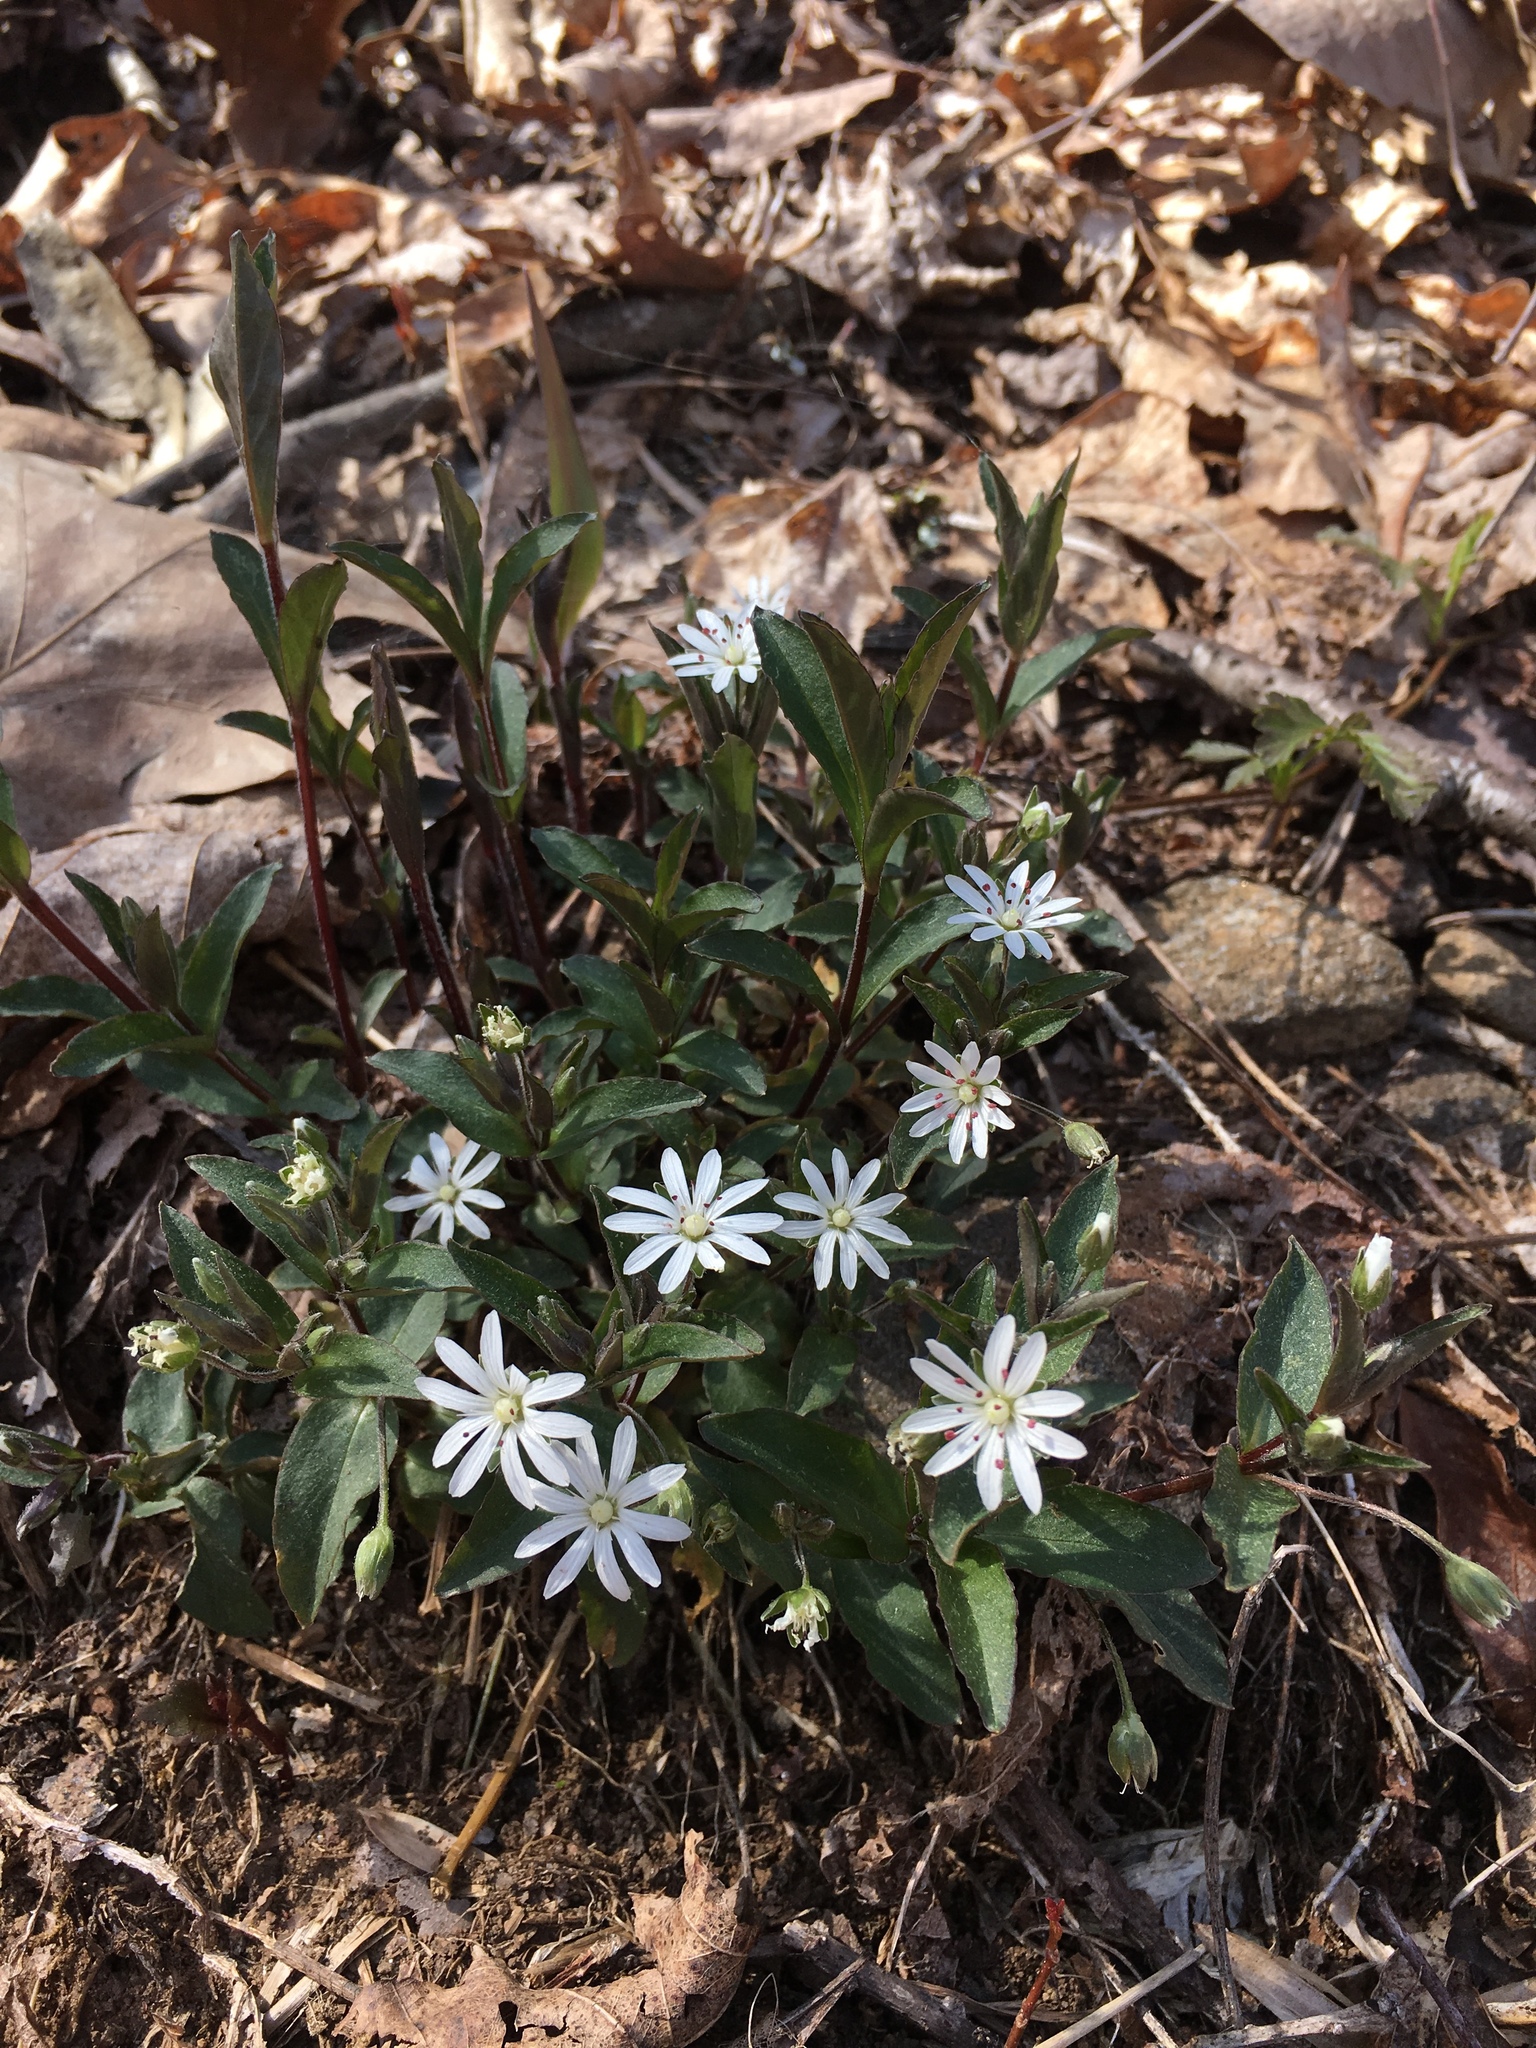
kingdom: Plantae
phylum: Tracheophyta
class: Magnoliopsida
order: Caryophyllales
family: Caryophyllaceae
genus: Stellaria
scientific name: Stellaria pubera
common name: Star chickweed
